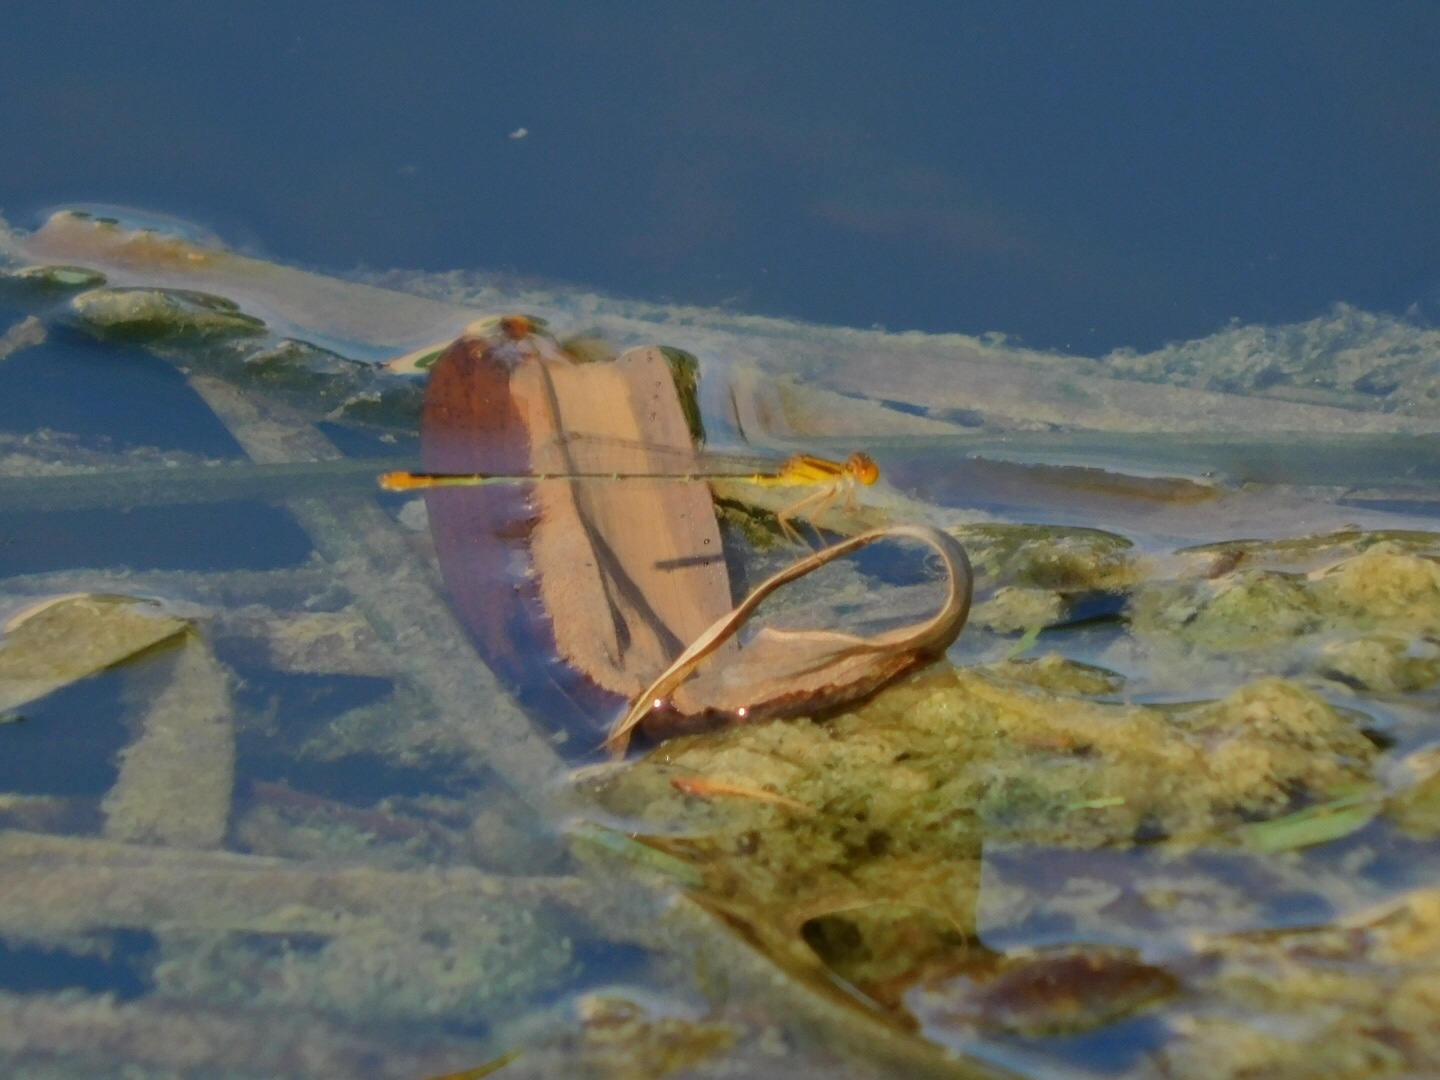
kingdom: Animalia
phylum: Arthropoda
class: Insecta
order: Odonata
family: Coenagrionidae
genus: Enallagma
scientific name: Enallagma pollutum
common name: Florida bluet
